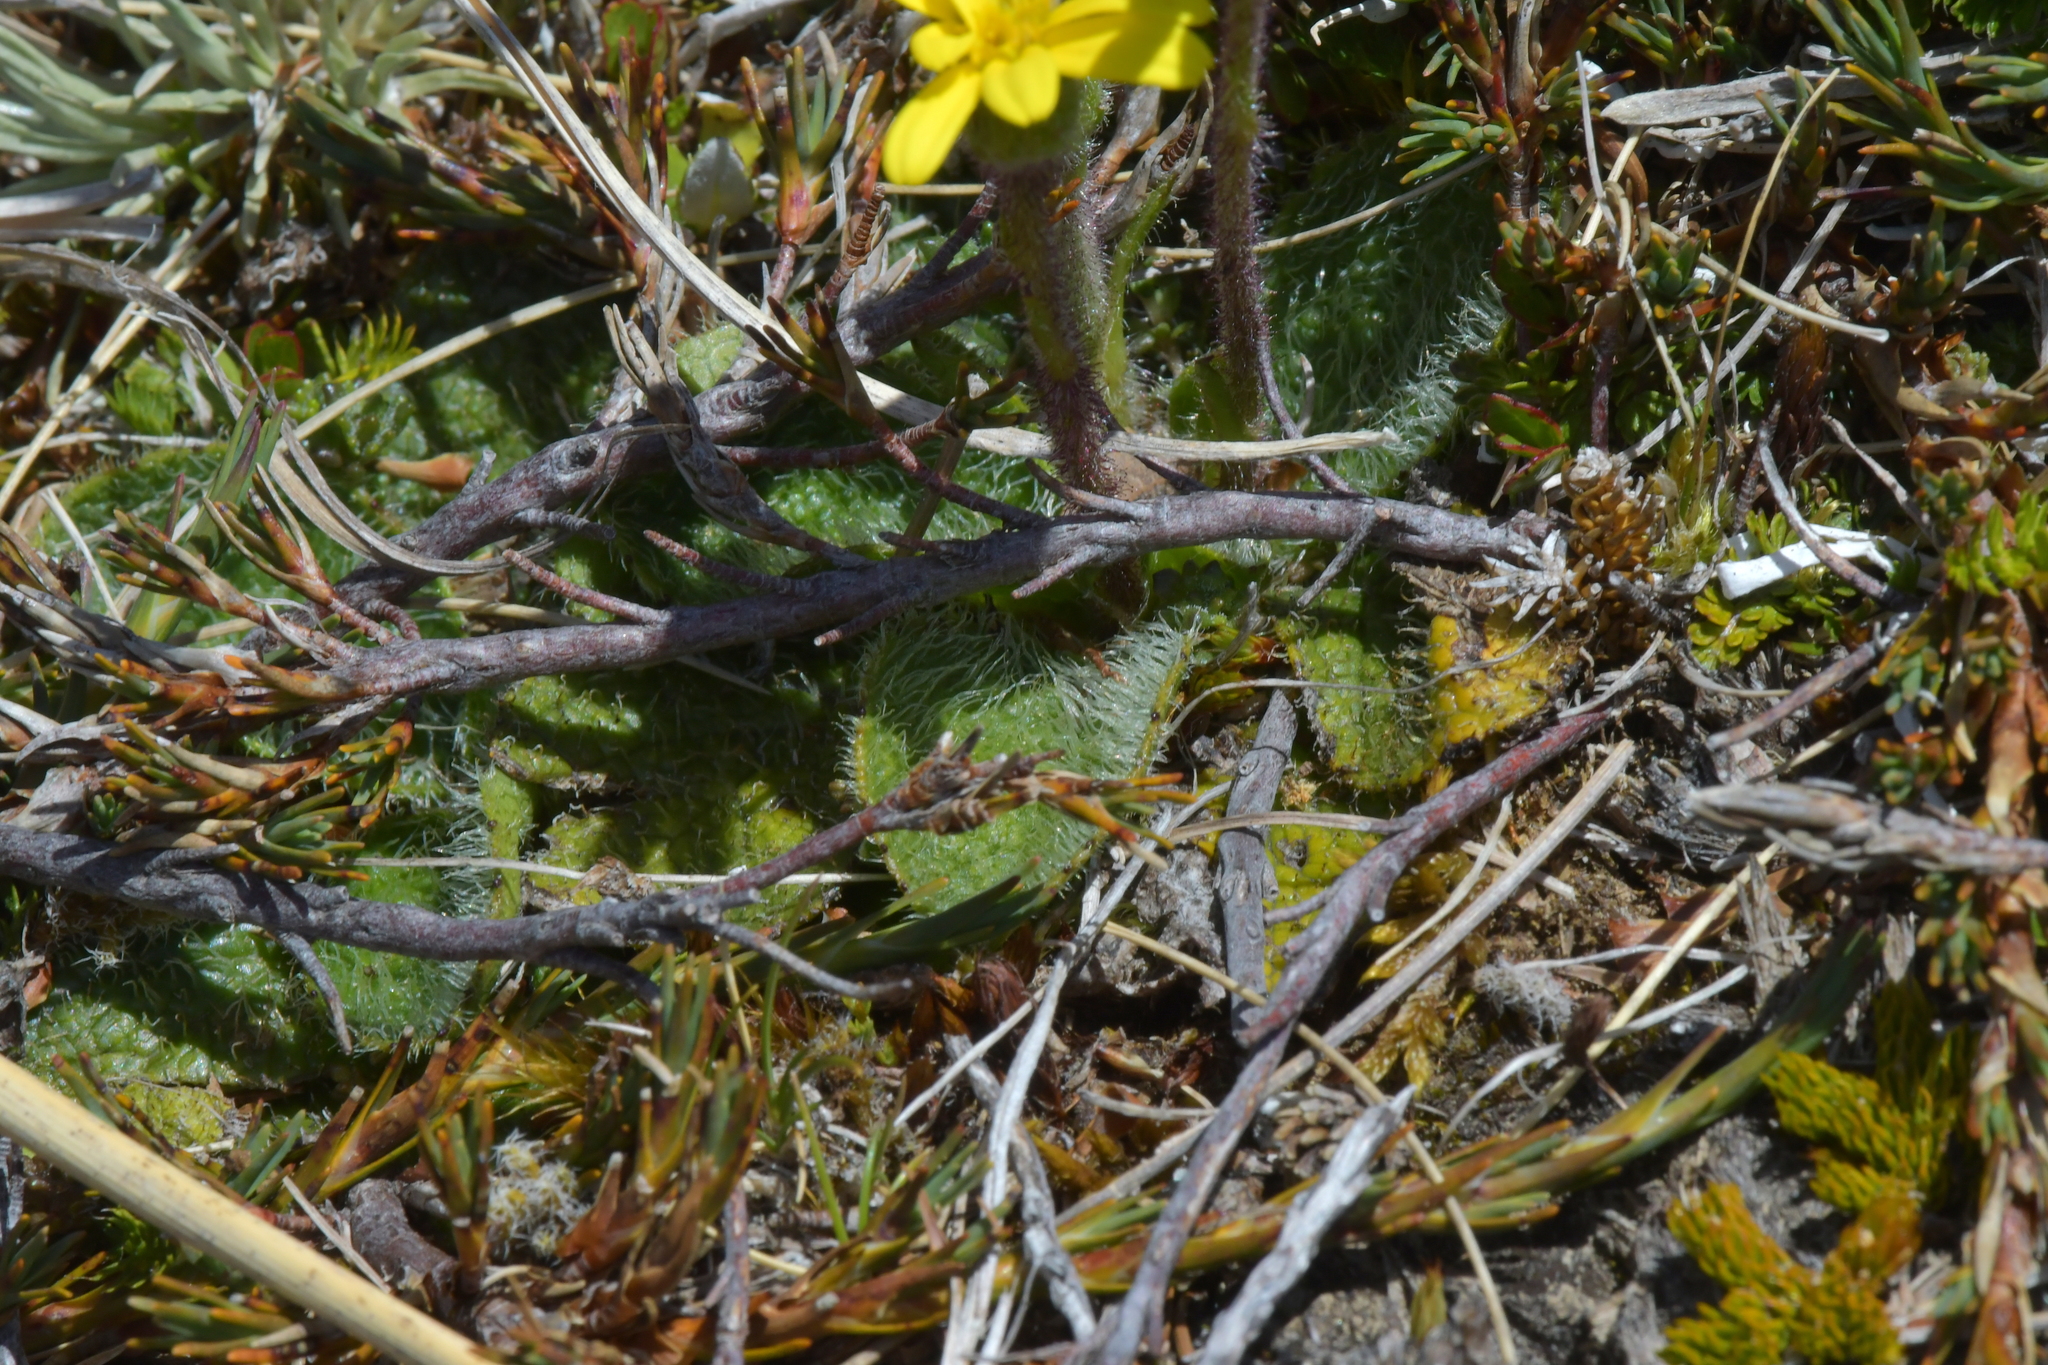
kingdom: Plantae
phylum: Tracheophyta
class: Magnoliopsida
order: Asterales
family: Asteraceae
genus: Brachyglottis
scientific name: Brachyglottis bellidioides
